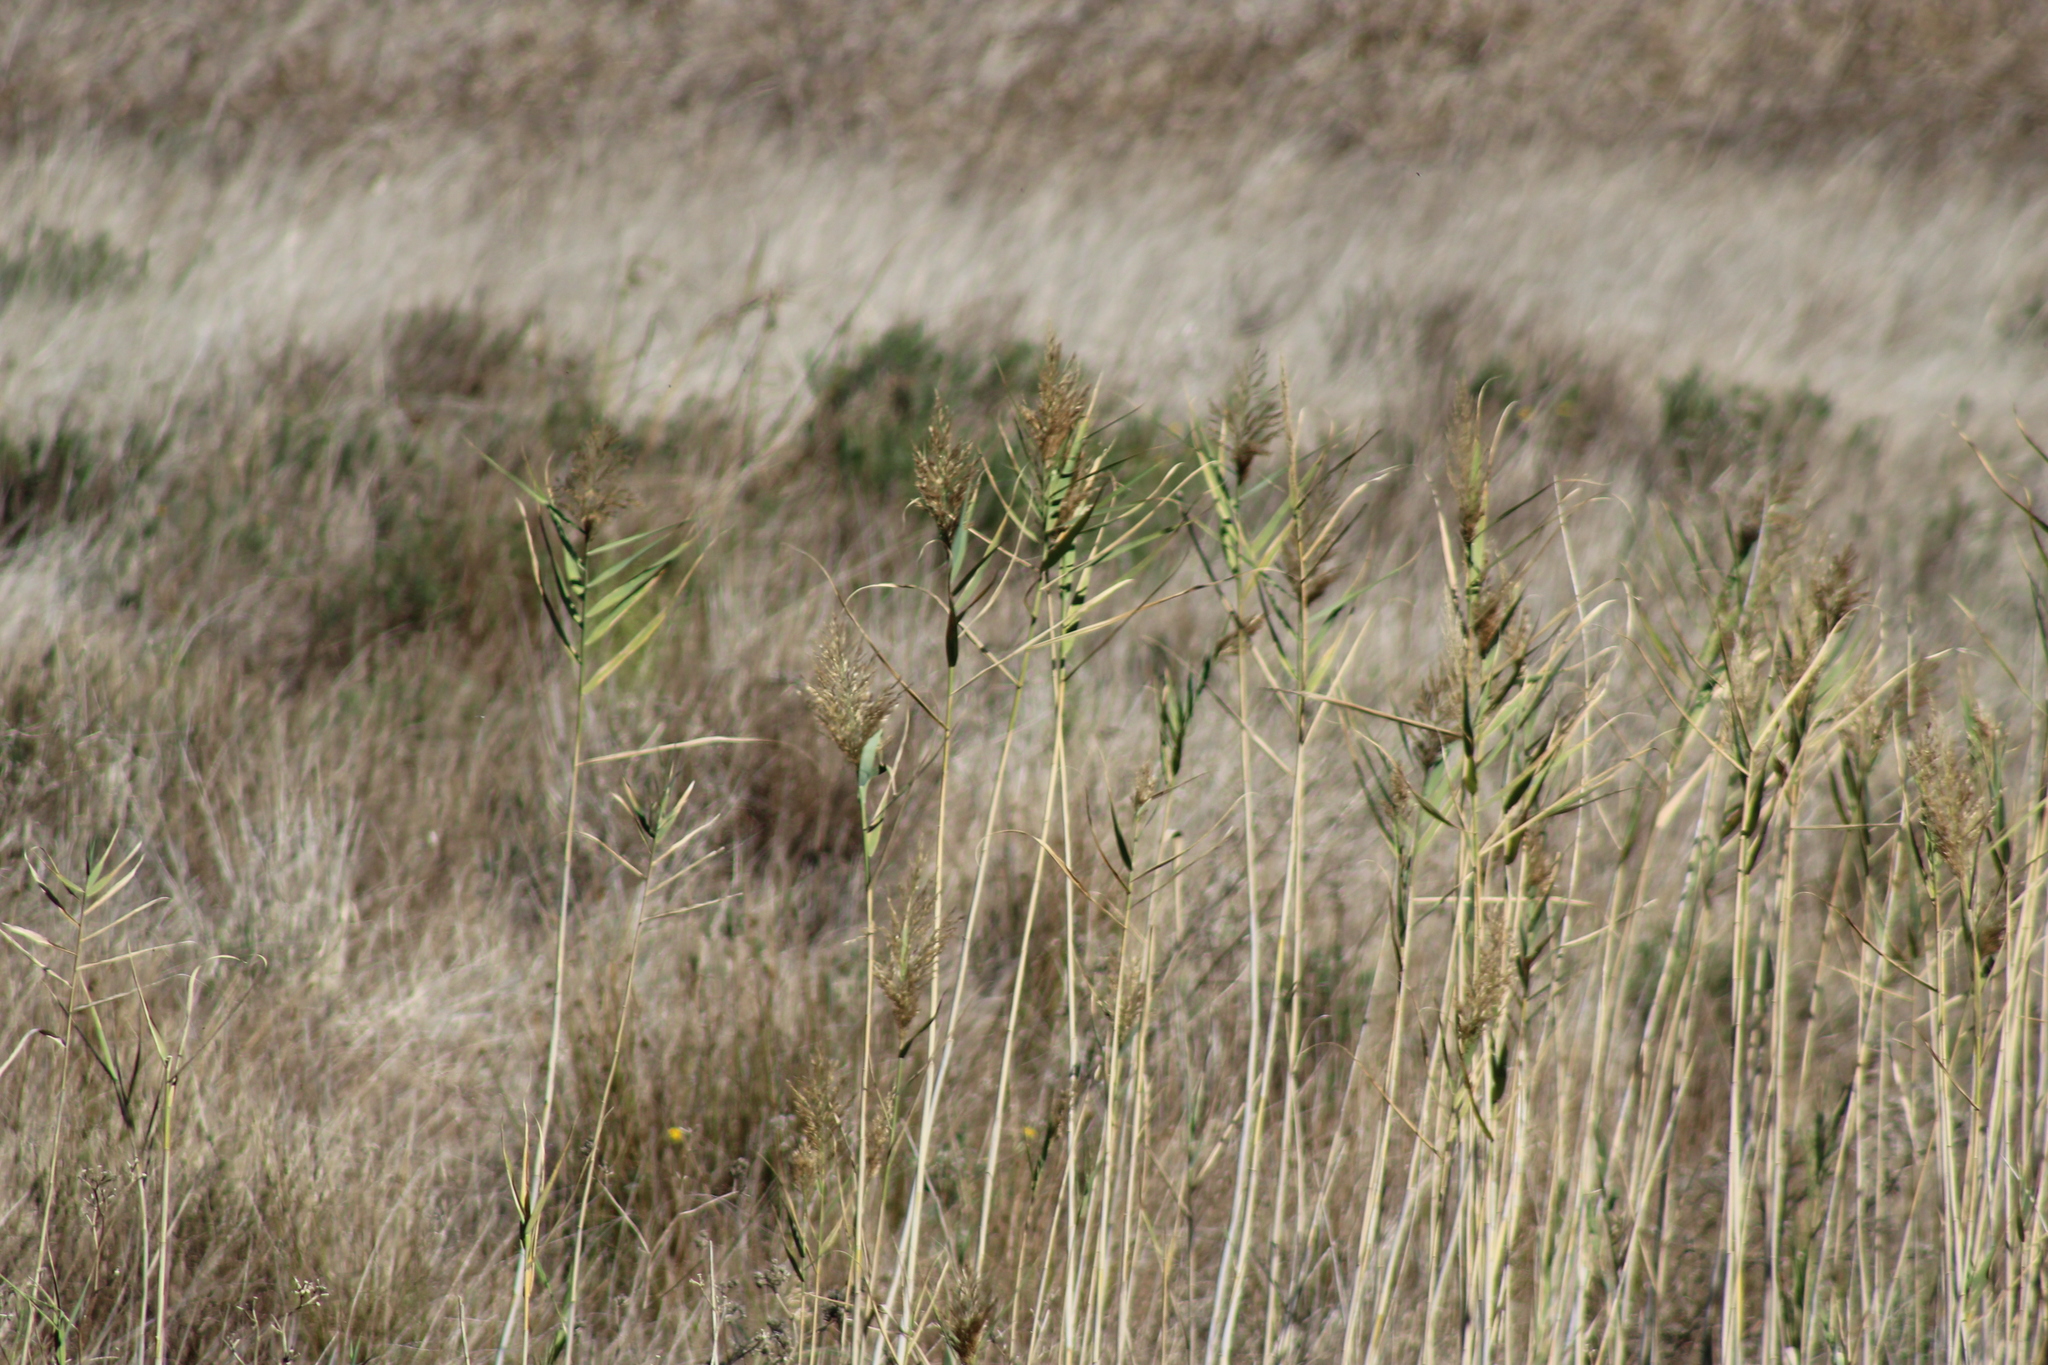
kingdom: Plantae
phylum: Tracheophyta
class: Liliopsida
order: Poales
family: Poaceae
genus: Phragmites
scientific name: Phragmites australis
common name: Common reed
